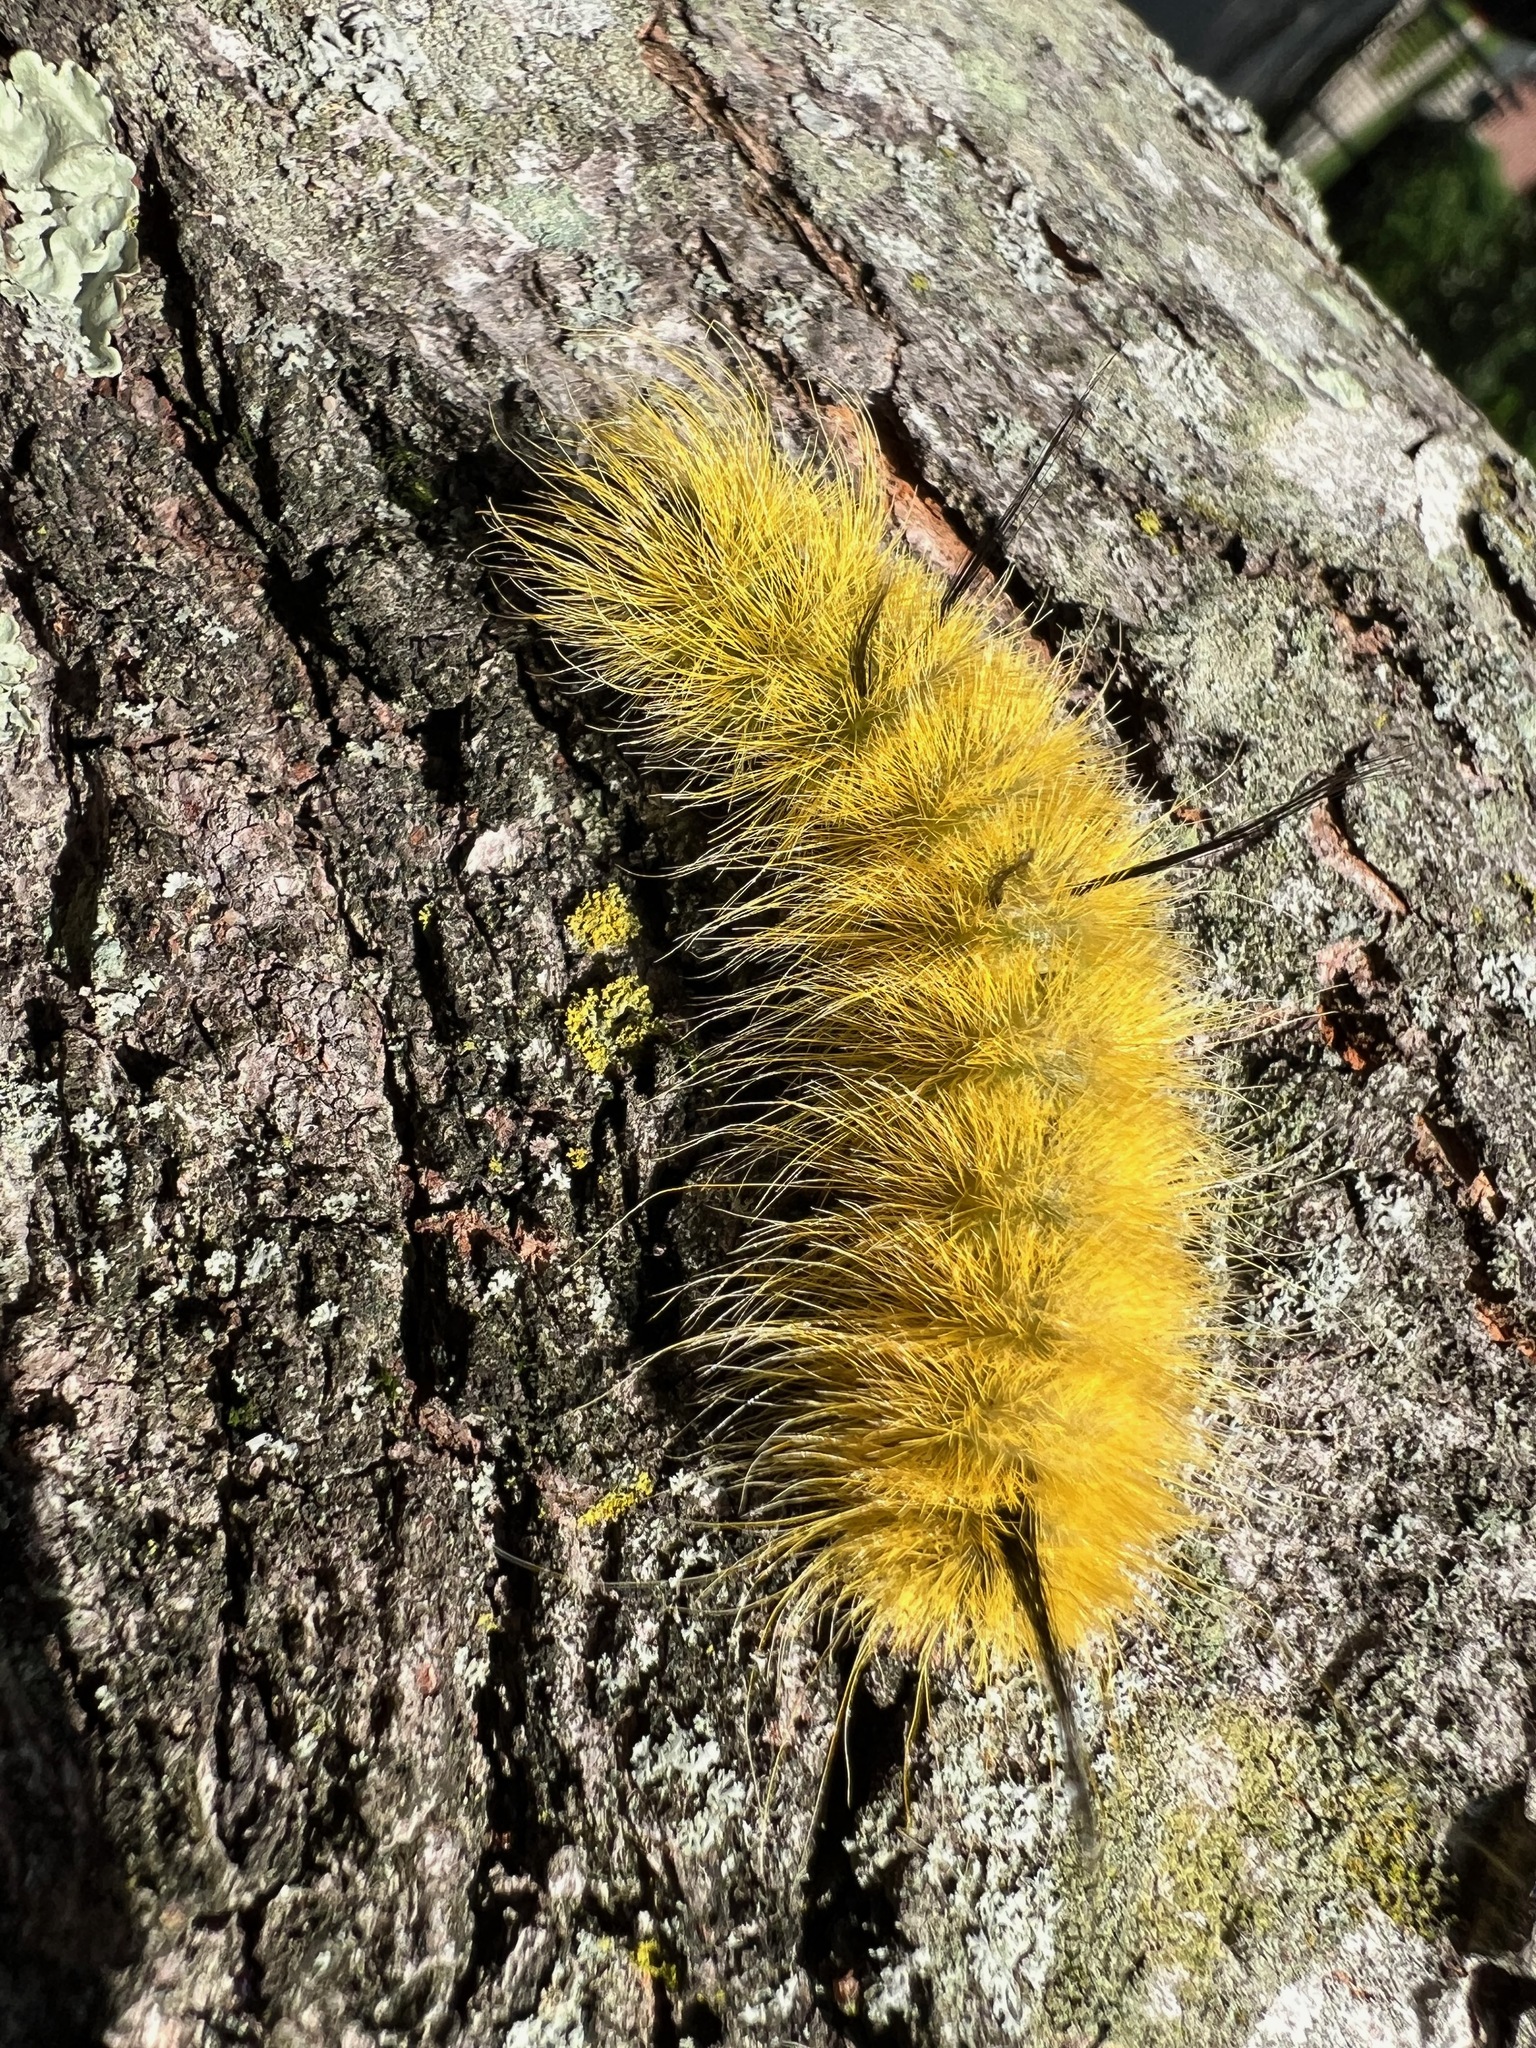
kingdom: Animalia
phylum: Arthropoda
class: Insecta
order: Lepidoptera
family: Noctuidae
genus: Acronicta
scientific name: Acronicta americana
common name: American dagger
